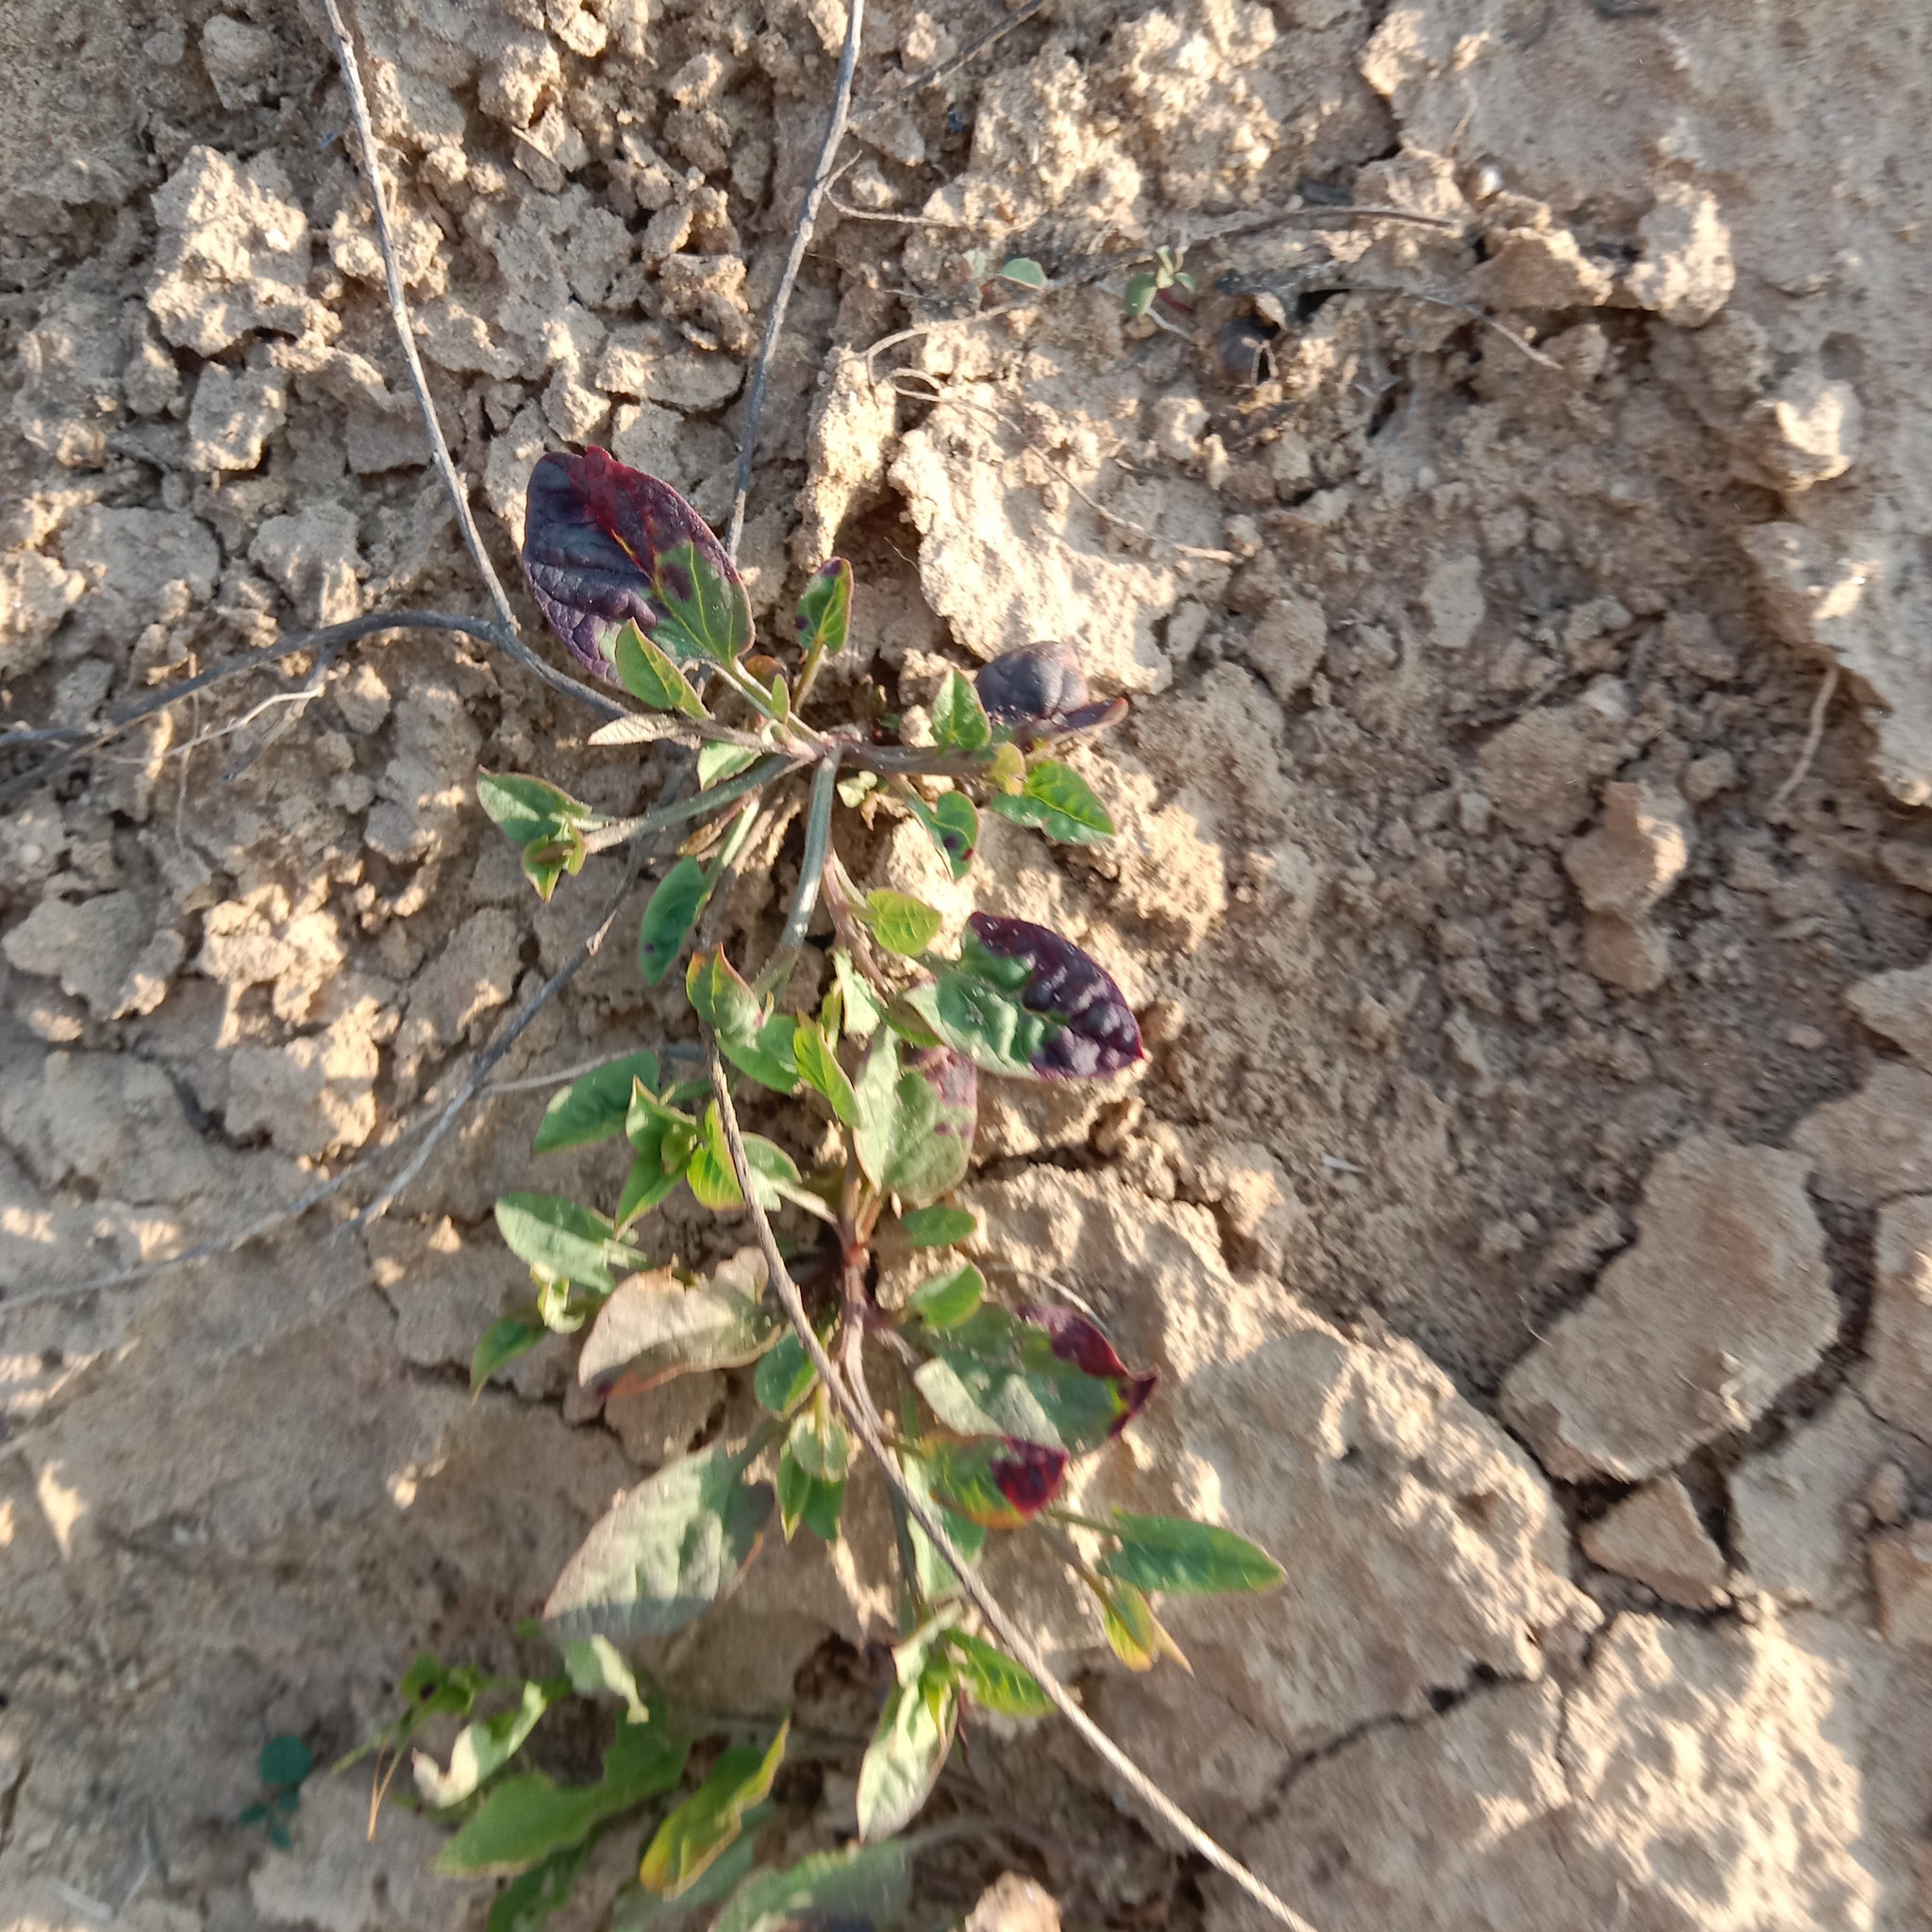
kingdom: Plantae
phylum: Tracheophyta
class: Magnoliopsida
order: Solanales
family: Convolvulaceae
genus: Convolvulus
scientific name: Convolvulus arvensis
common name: Field bindweed
